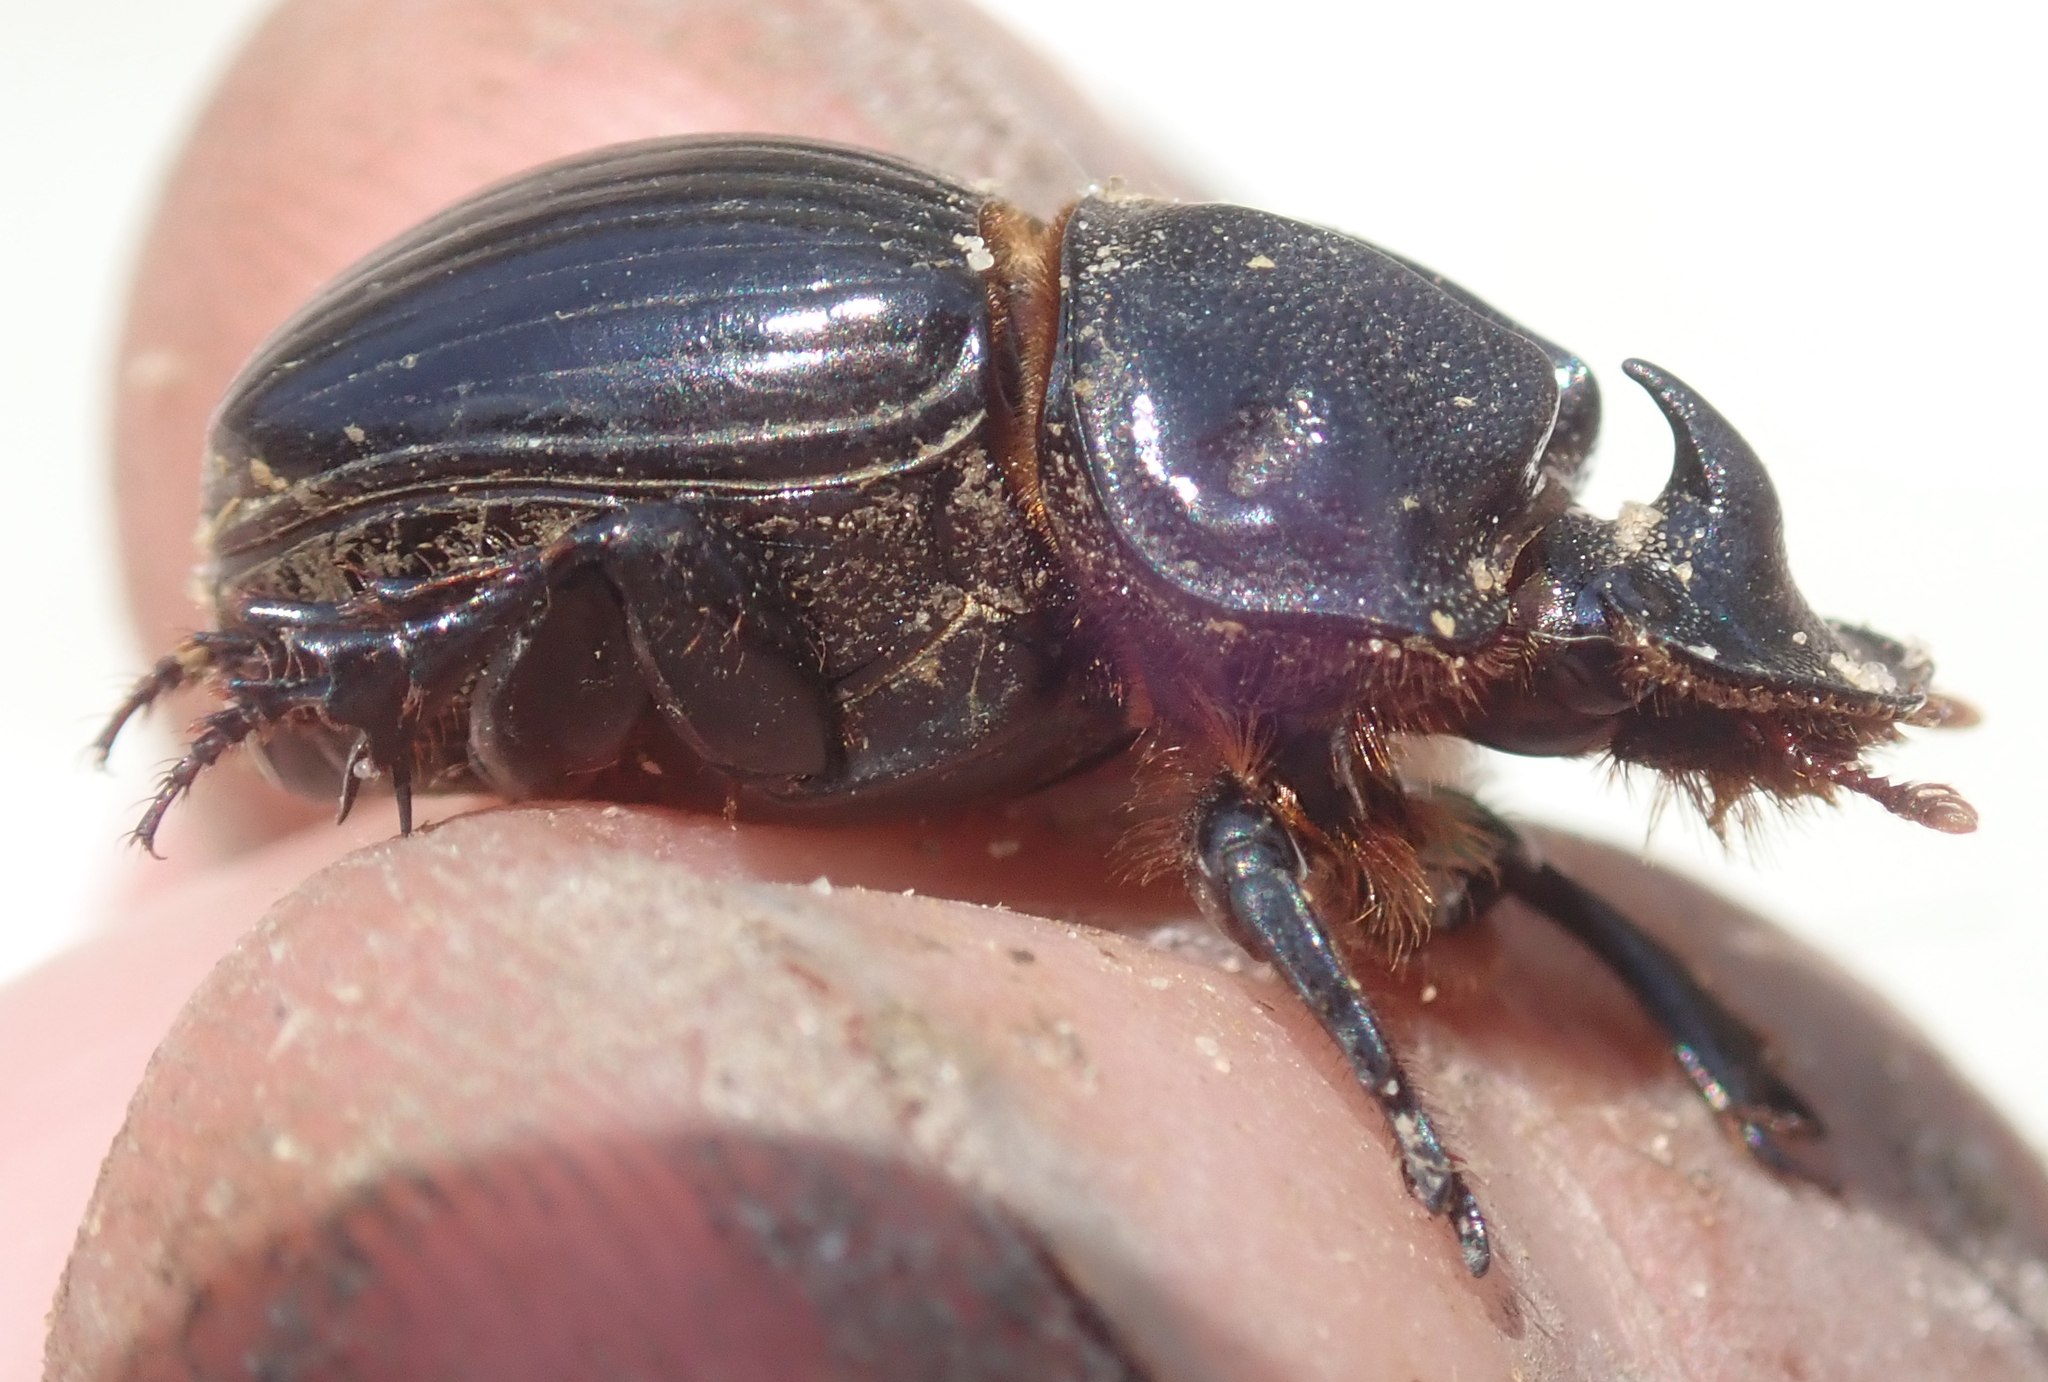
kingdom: Animalia
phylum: Arthropoda
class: Insecta
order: Coleoptera
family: Scarabaeidae
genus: Copris
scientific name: Copris bootes
